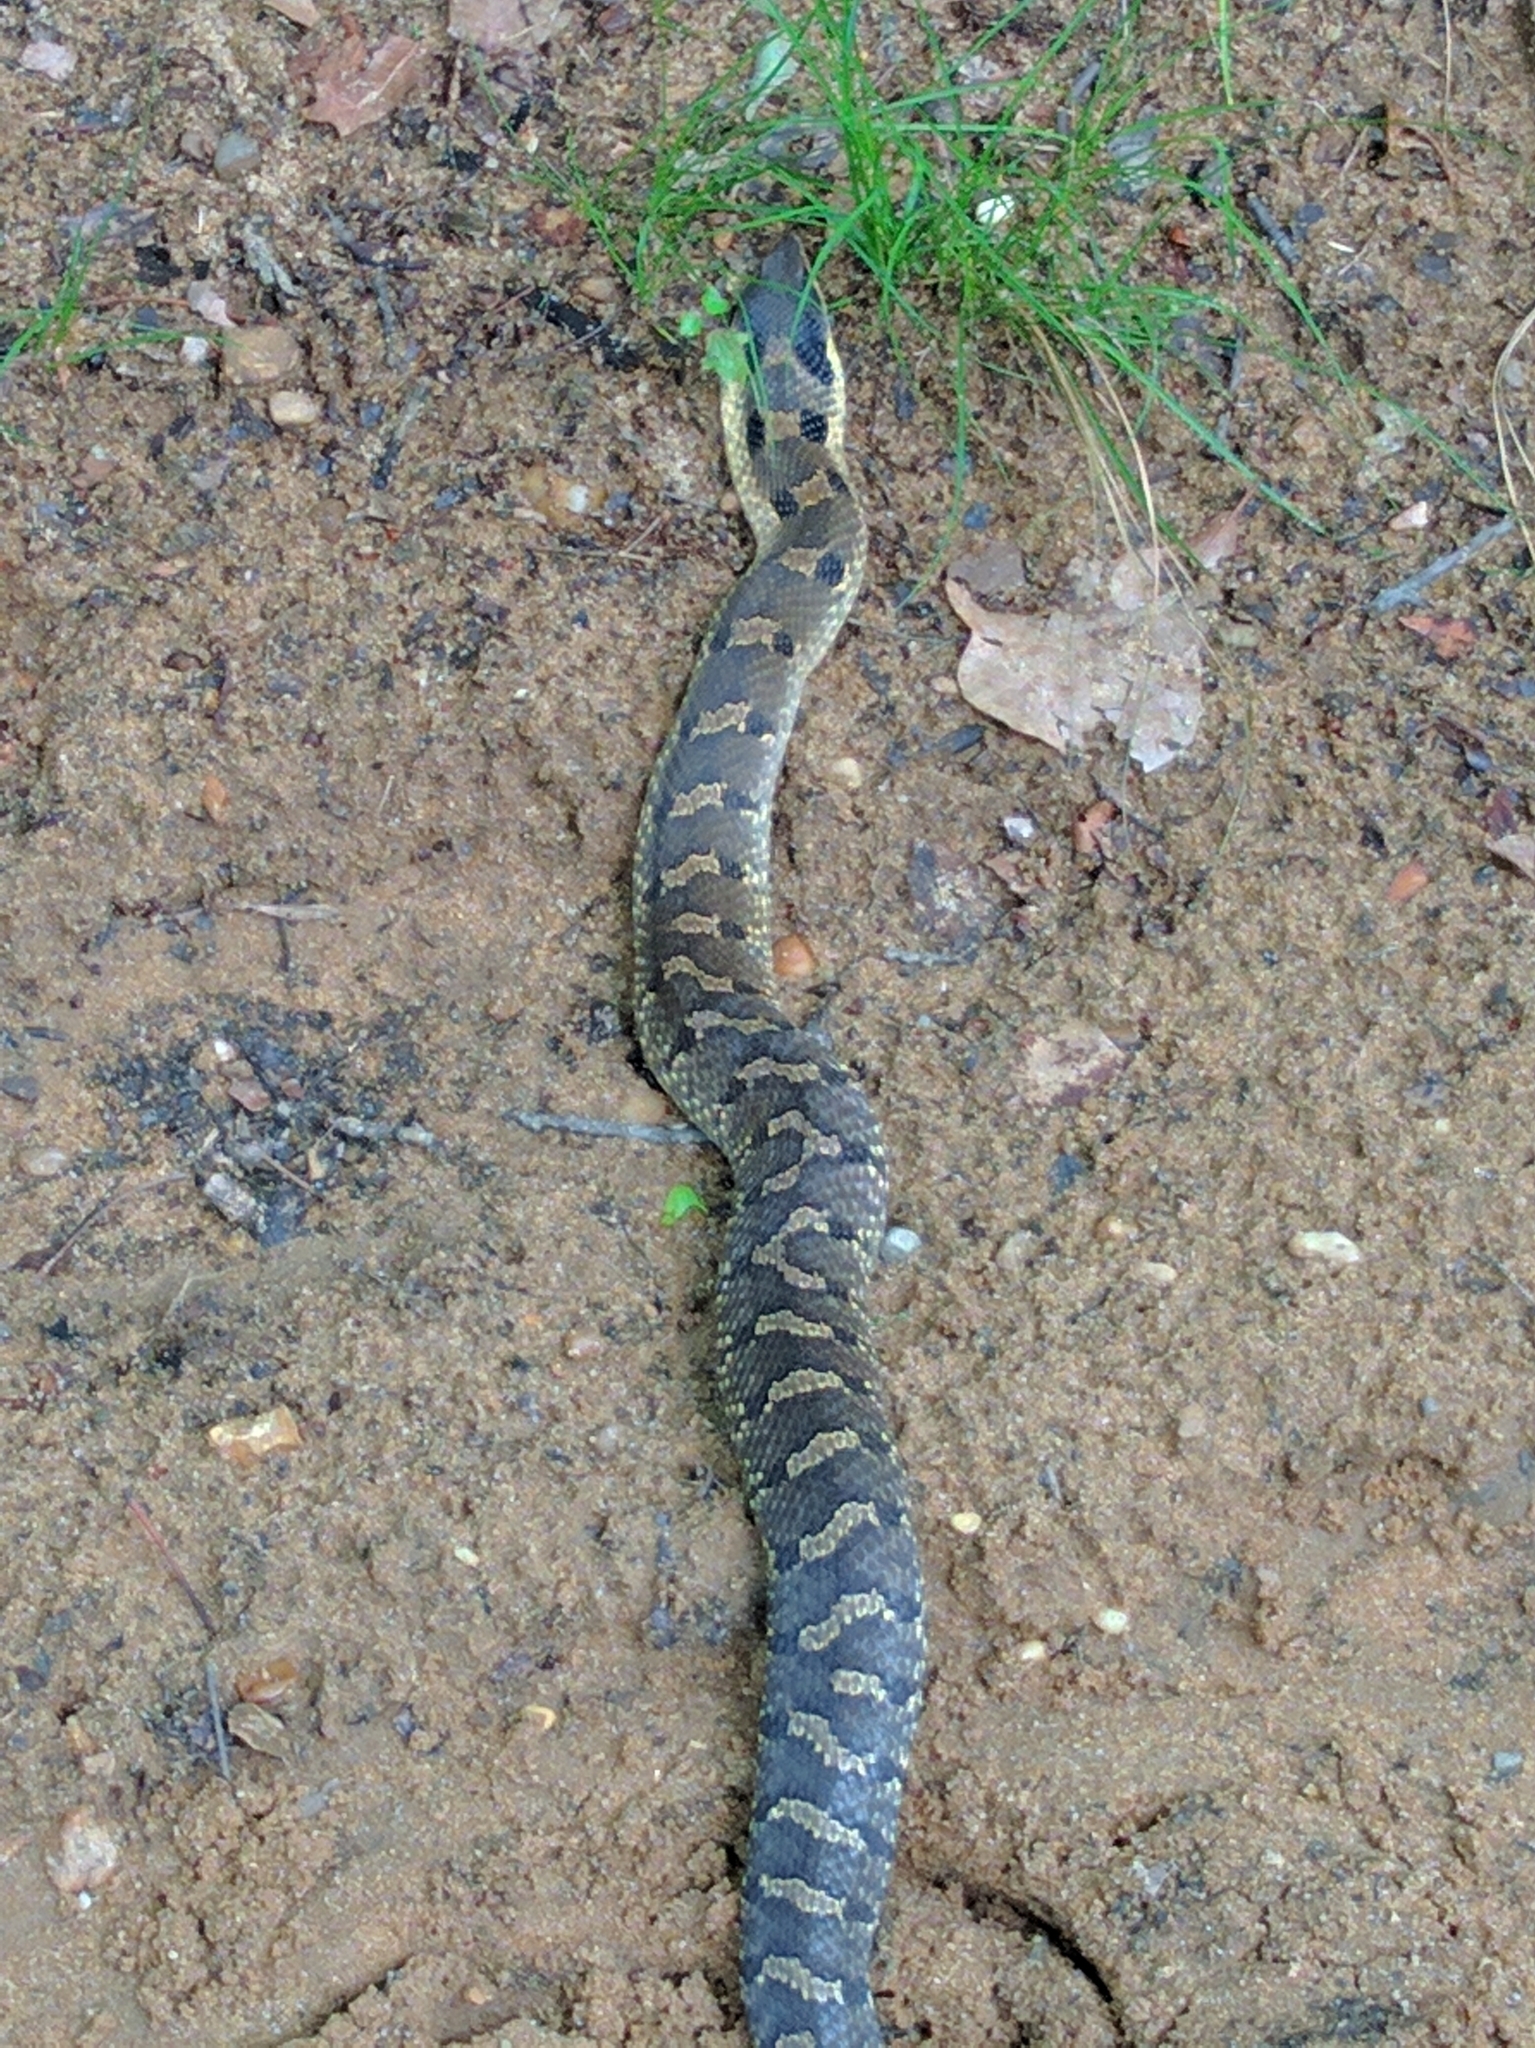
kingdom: Animalia
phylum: Chordata
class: Squamata
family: Colubridae
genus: Heterodon
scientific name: Heterodon platirhinos
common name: Eastern hognose snake
